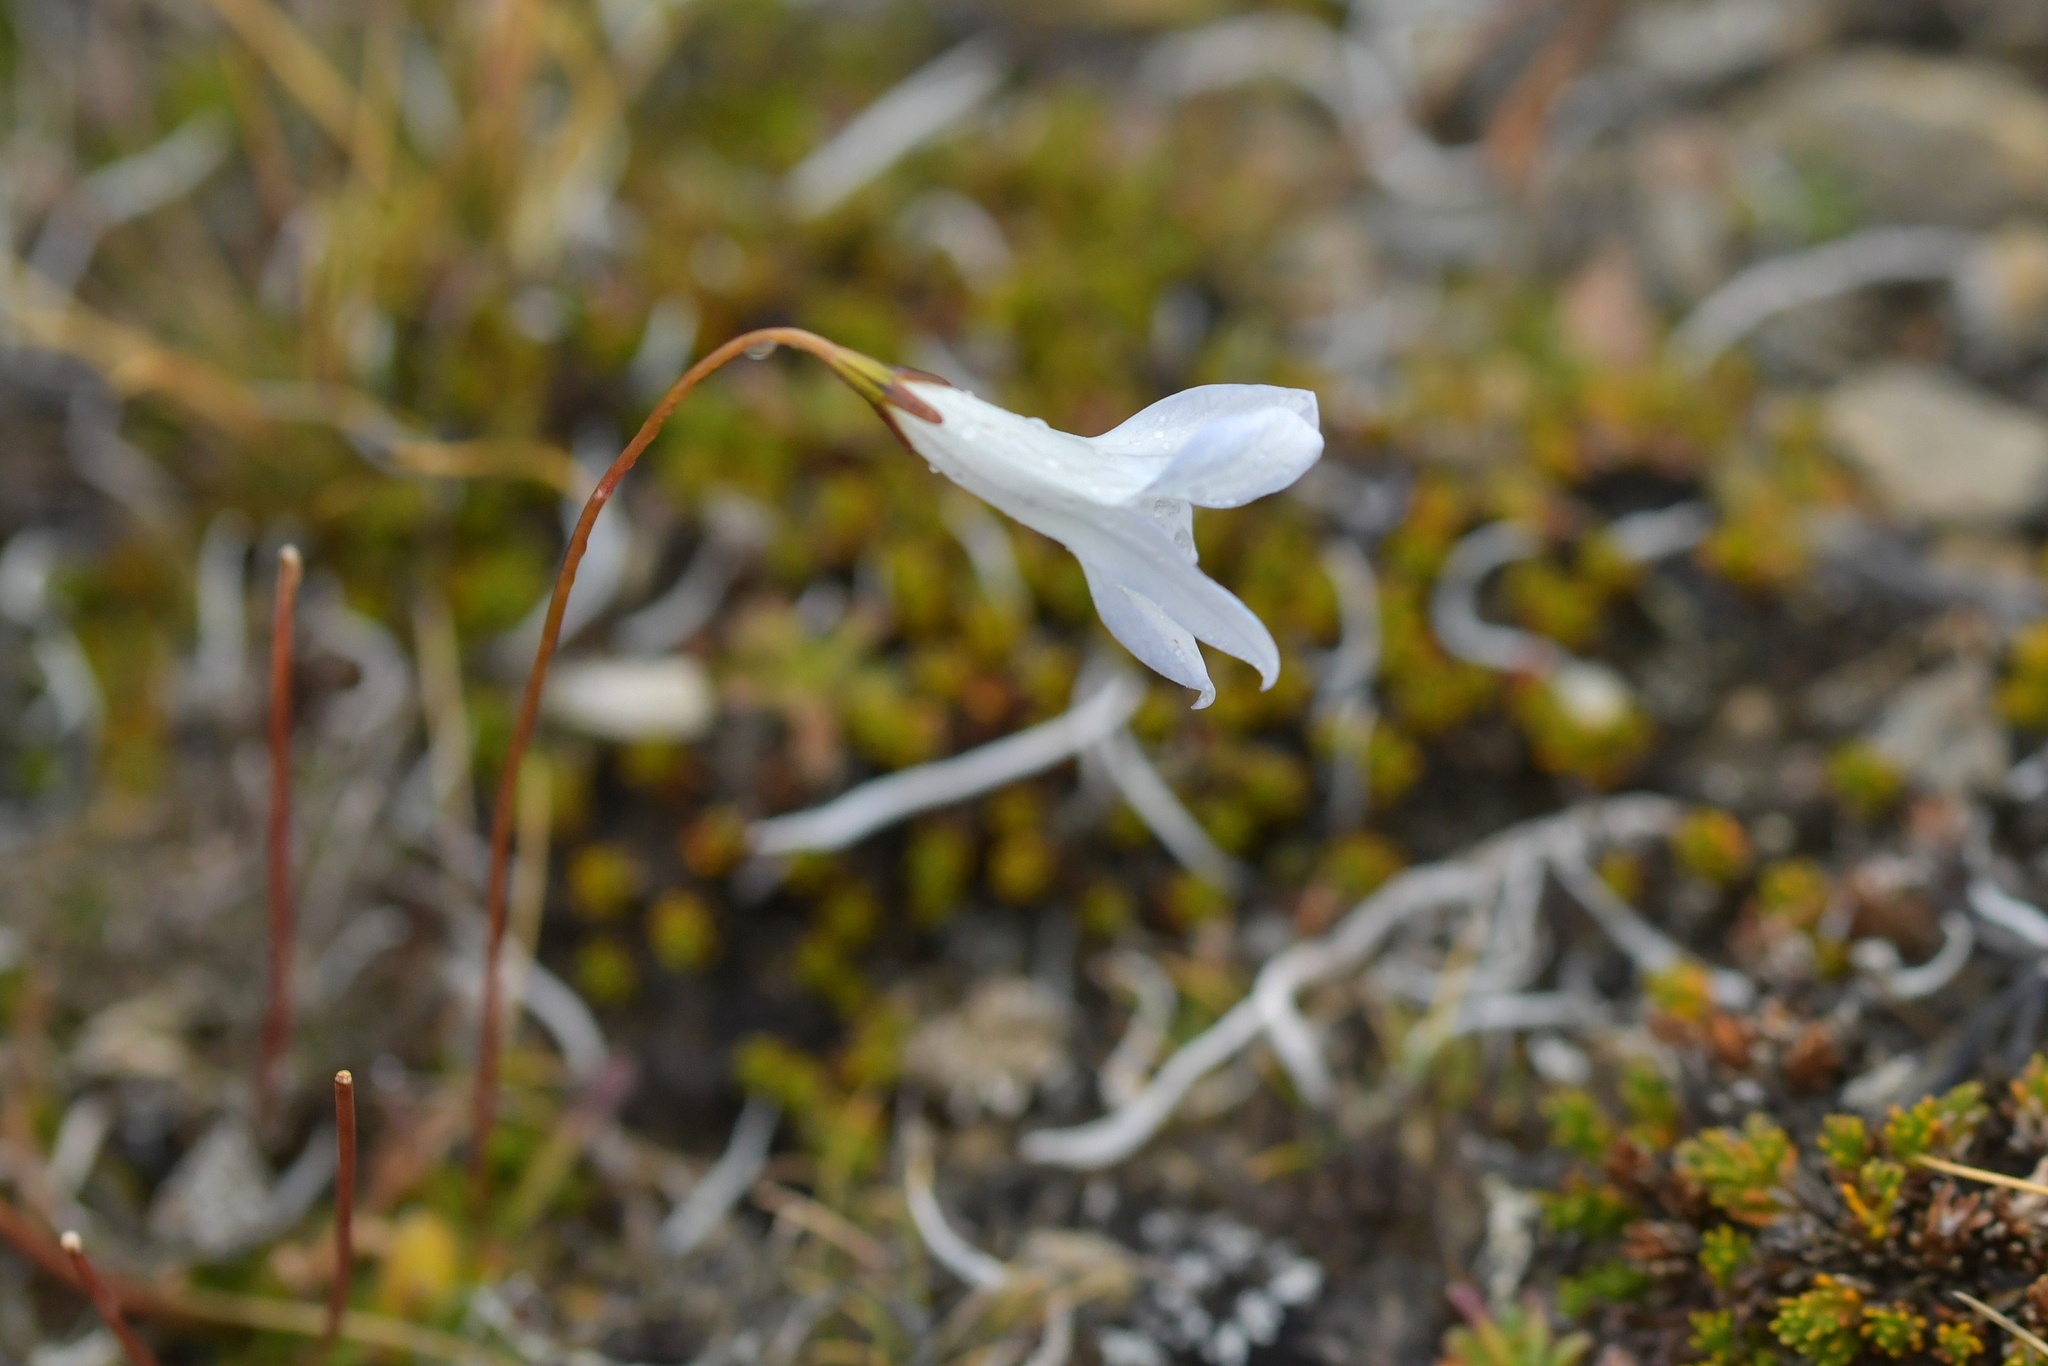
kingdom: Plantae
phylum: Tracheophyta
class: Magnoliopsida
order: Asterales
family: Campanulaceae
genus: Wahlenbergia
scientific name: Wahlenbergia albomarginata
